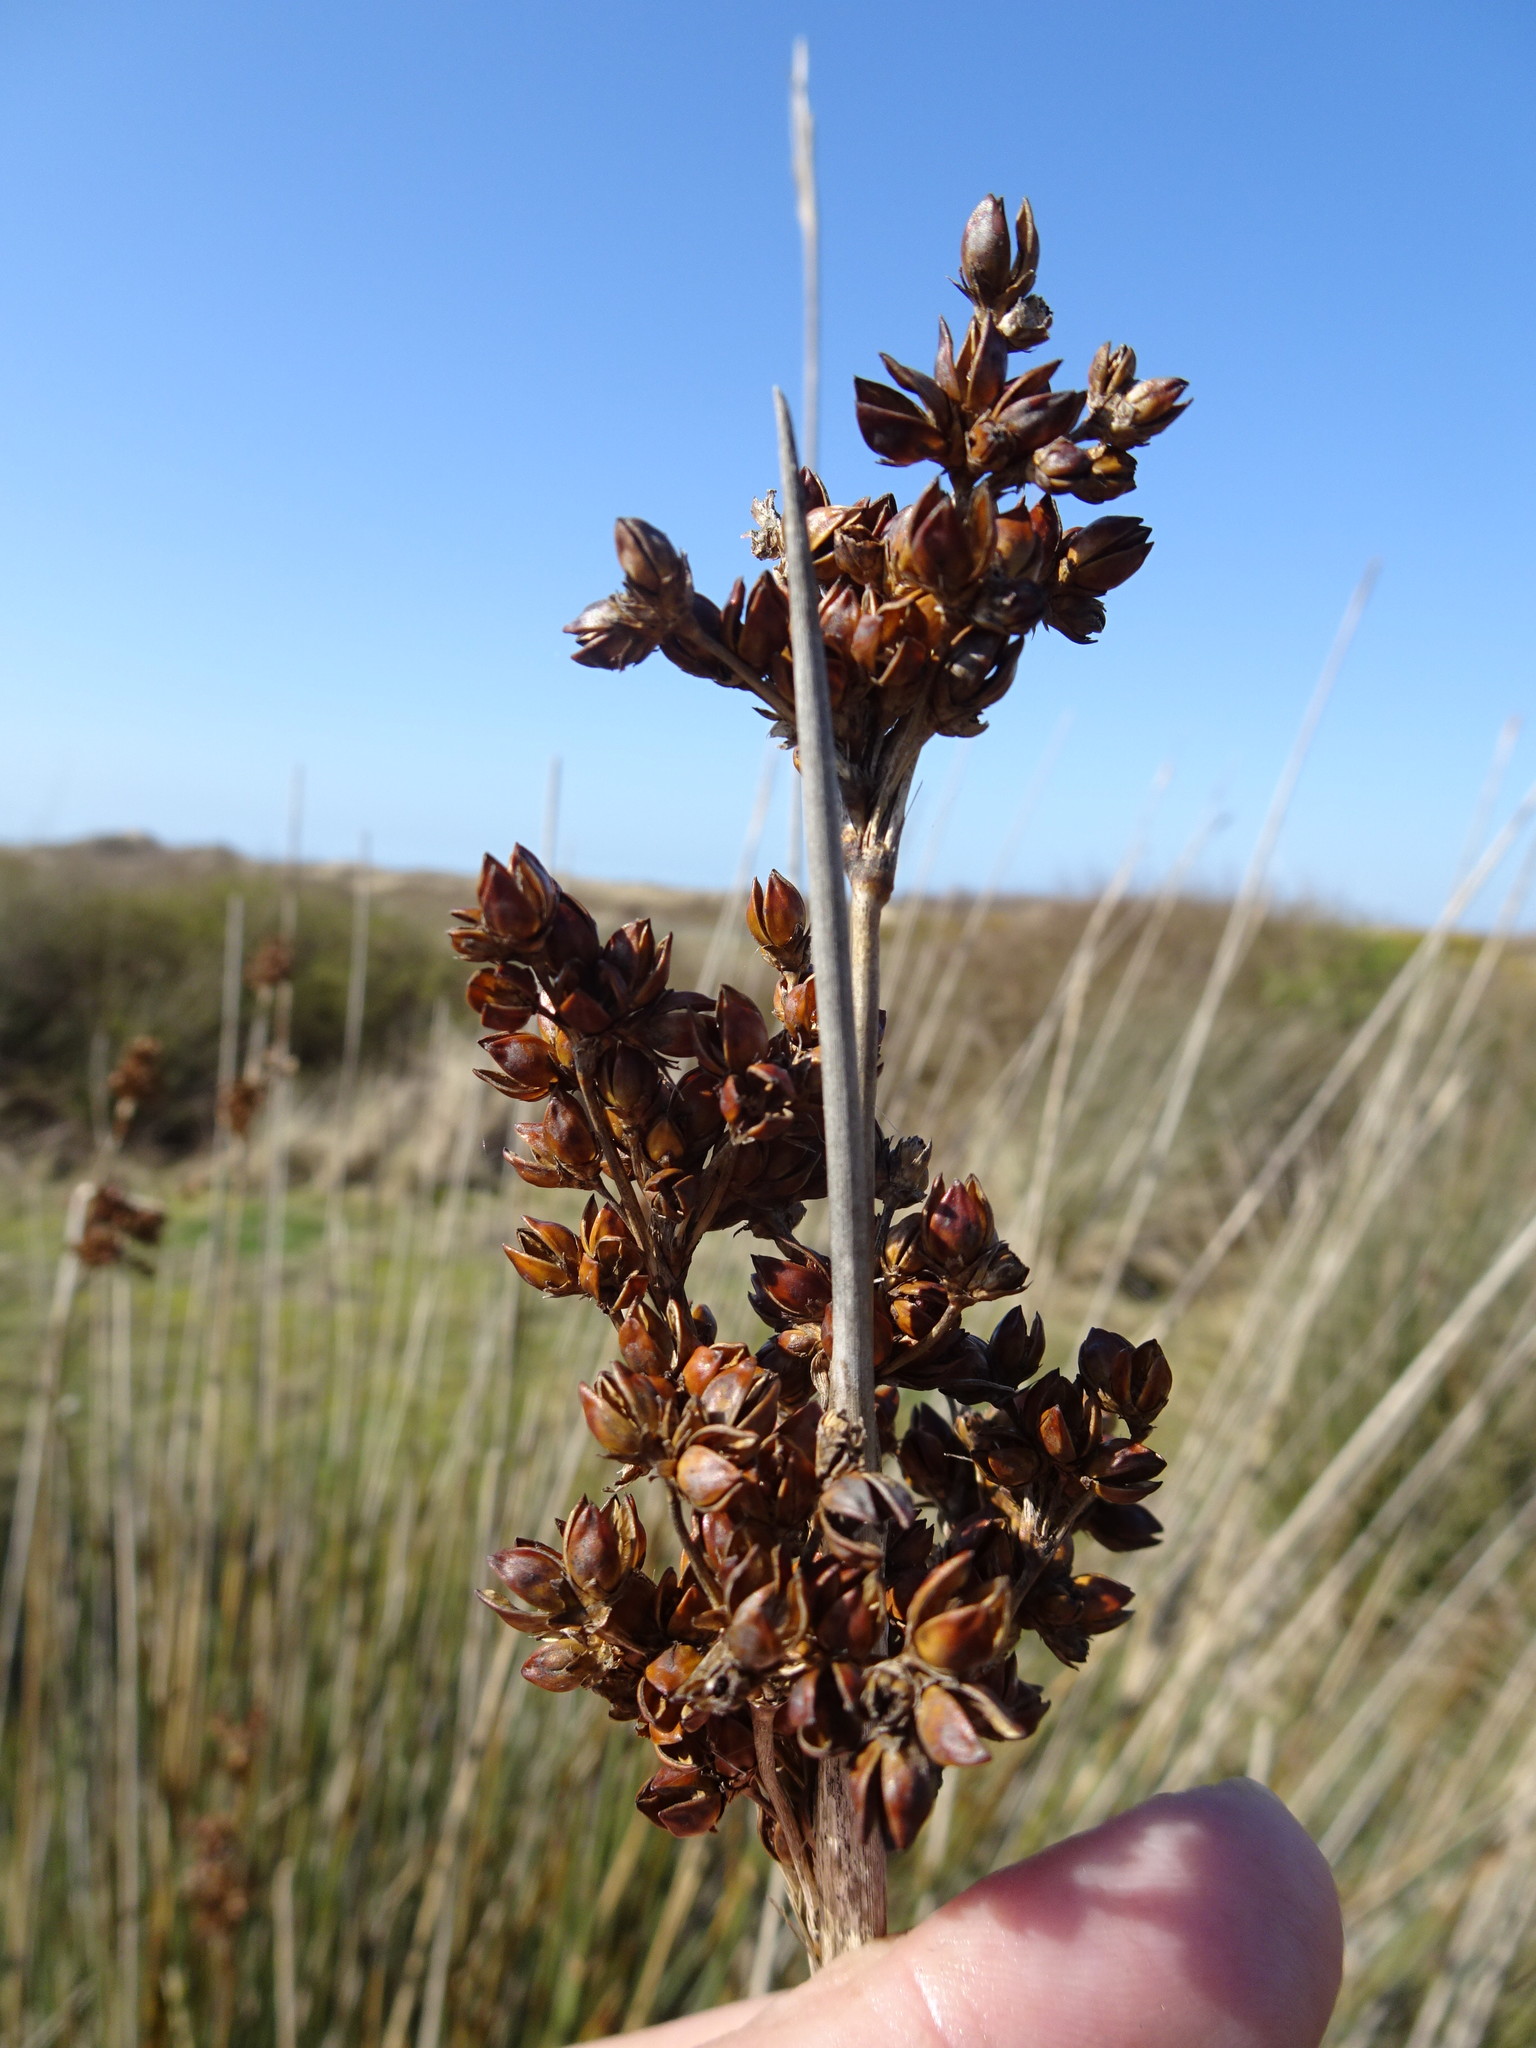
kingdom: Plantae
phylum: Tracheophyta
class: Liliopsida
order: Poales
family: Juncaceae
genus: Juncus
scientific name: Juncus acutus
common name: Sharp rush
